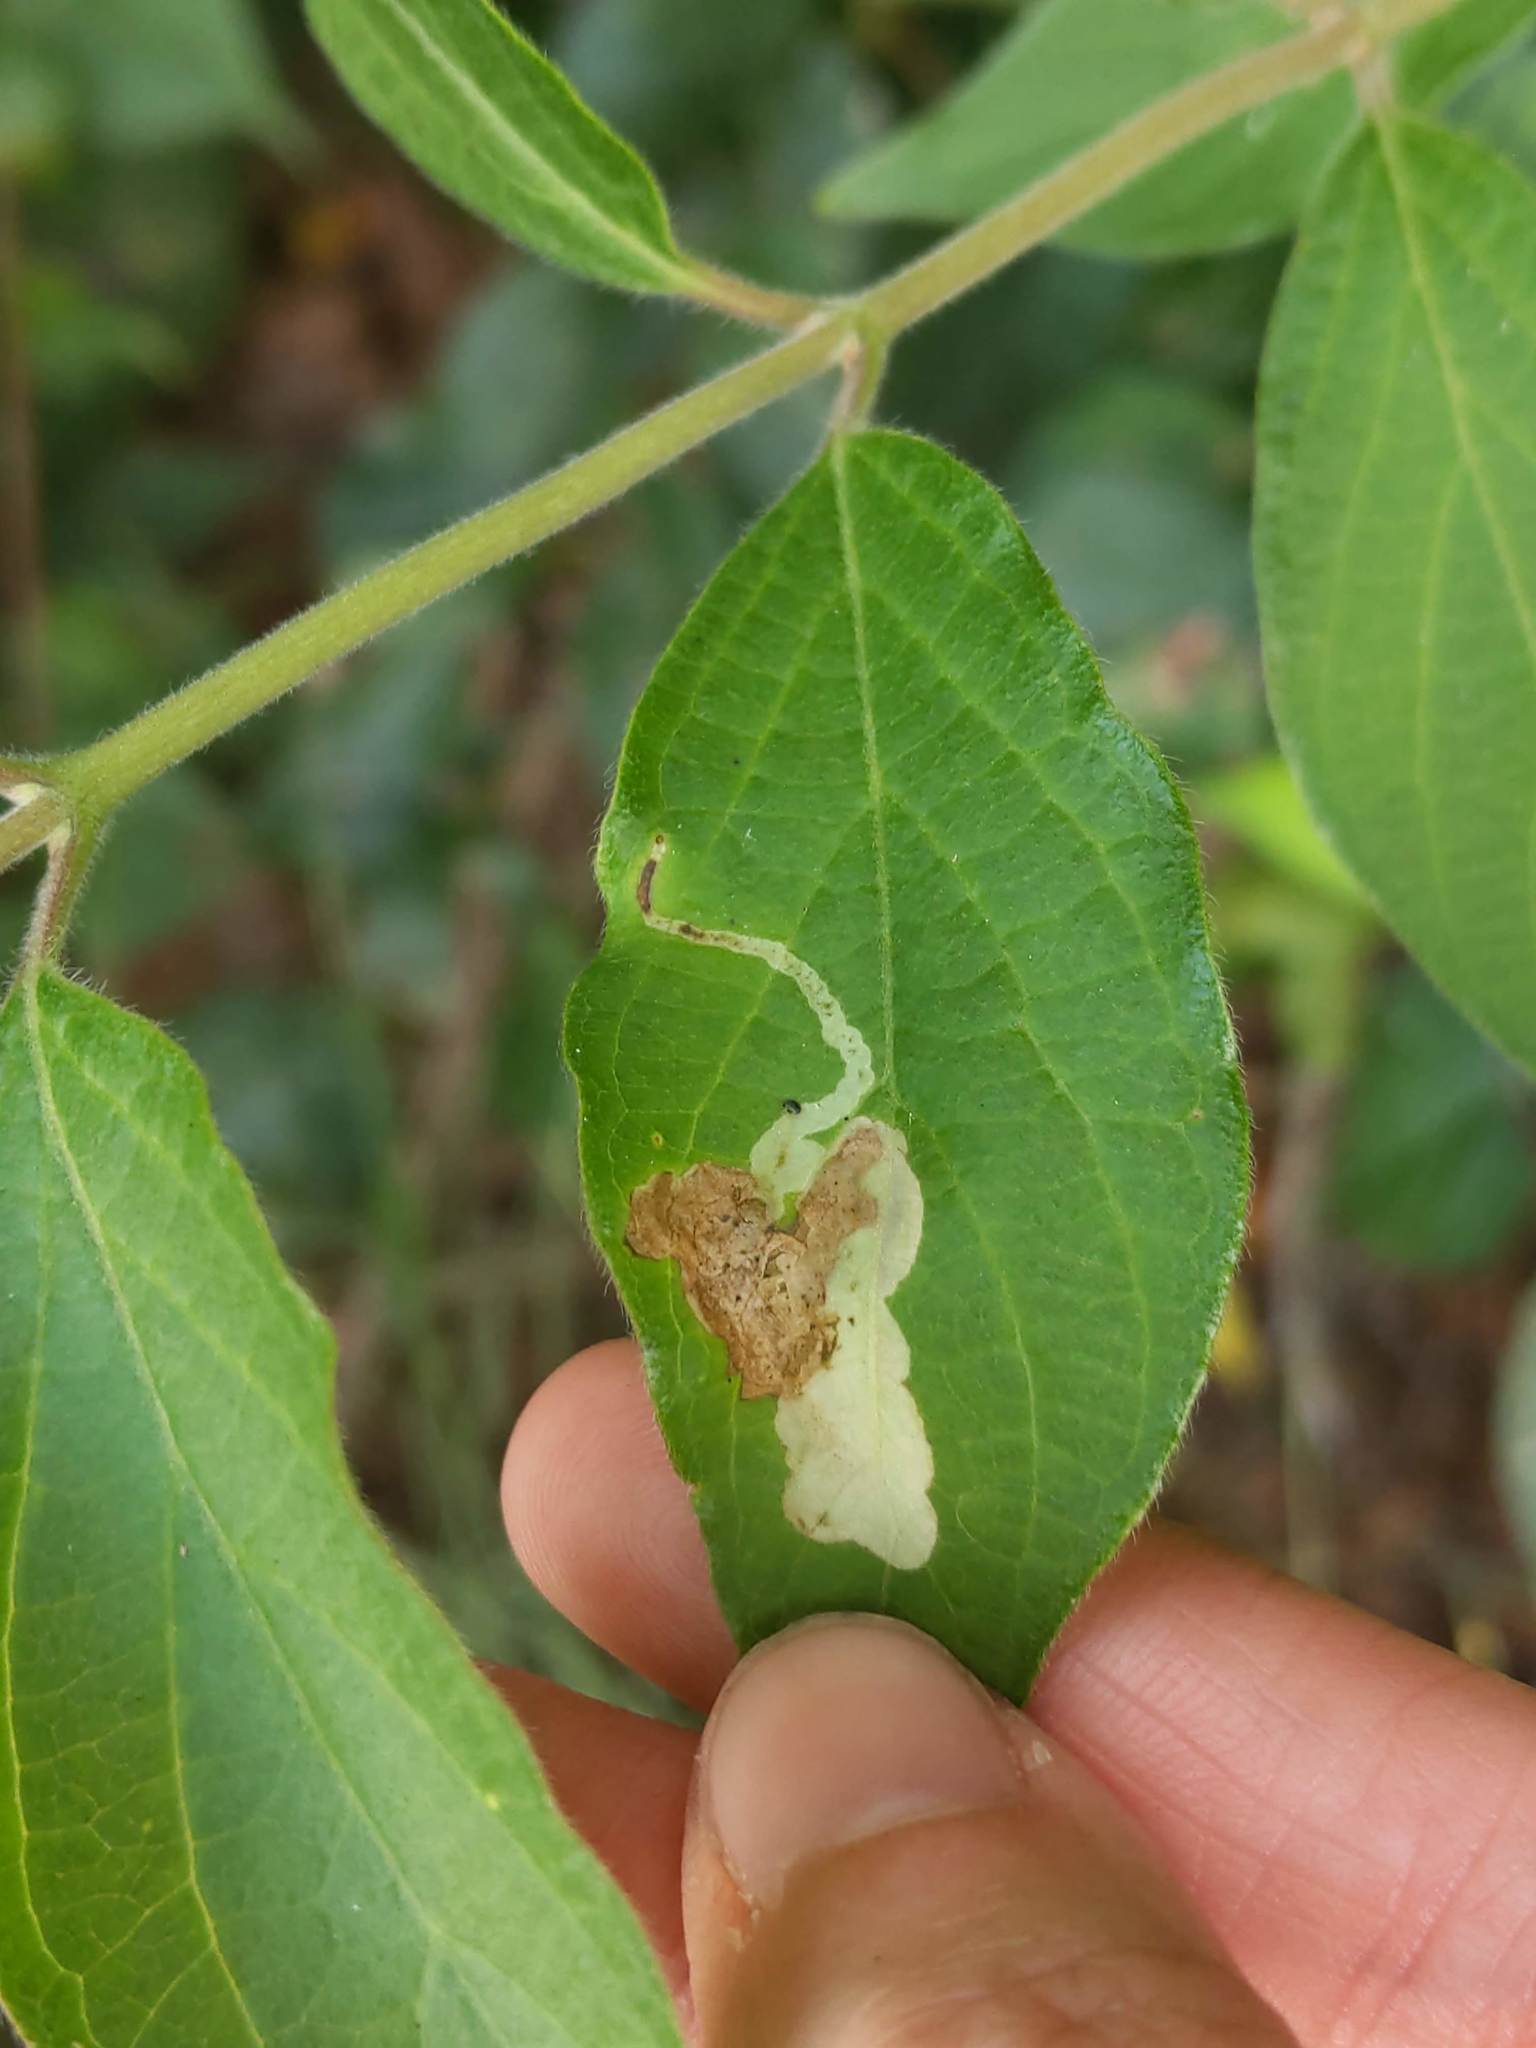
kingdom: Animalia
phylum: Arthropoda
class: Insecta
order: Diptera
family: Agromyzidae
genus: Aulagromyza
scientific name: Aulagromyza
